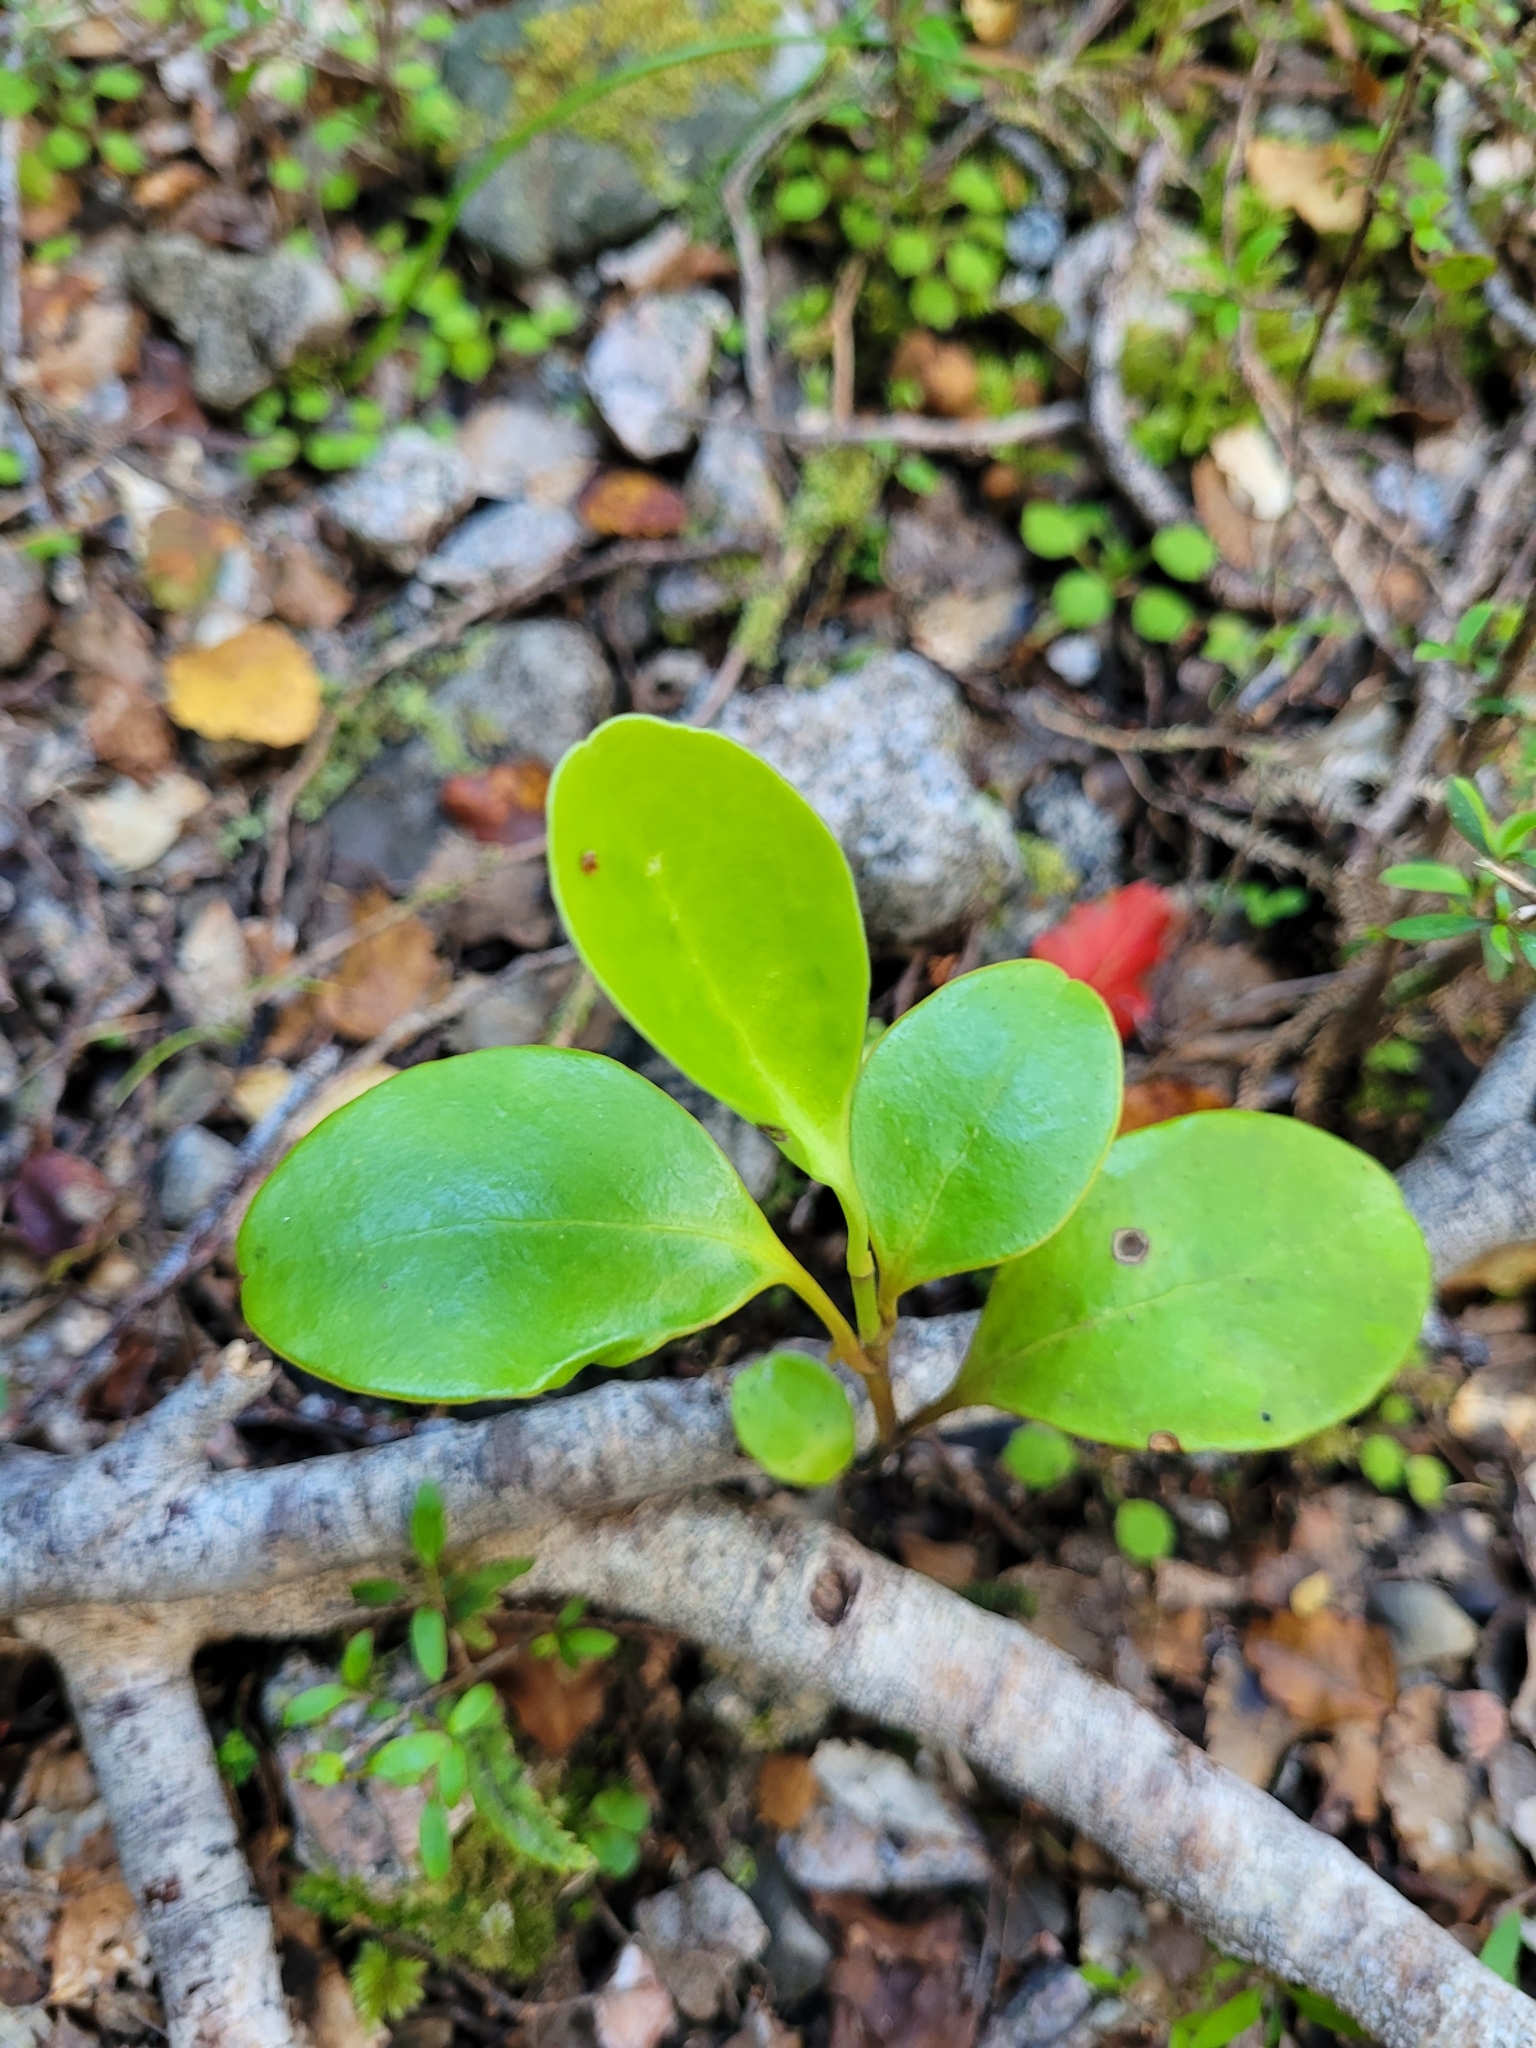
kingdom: Plantae
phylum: Tracheophyta
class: Magnoliopsida
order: Apiales
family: Griseliniaceae
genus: Griselinia
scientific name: Griselinia littoralis
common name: New zealand broadleaf
